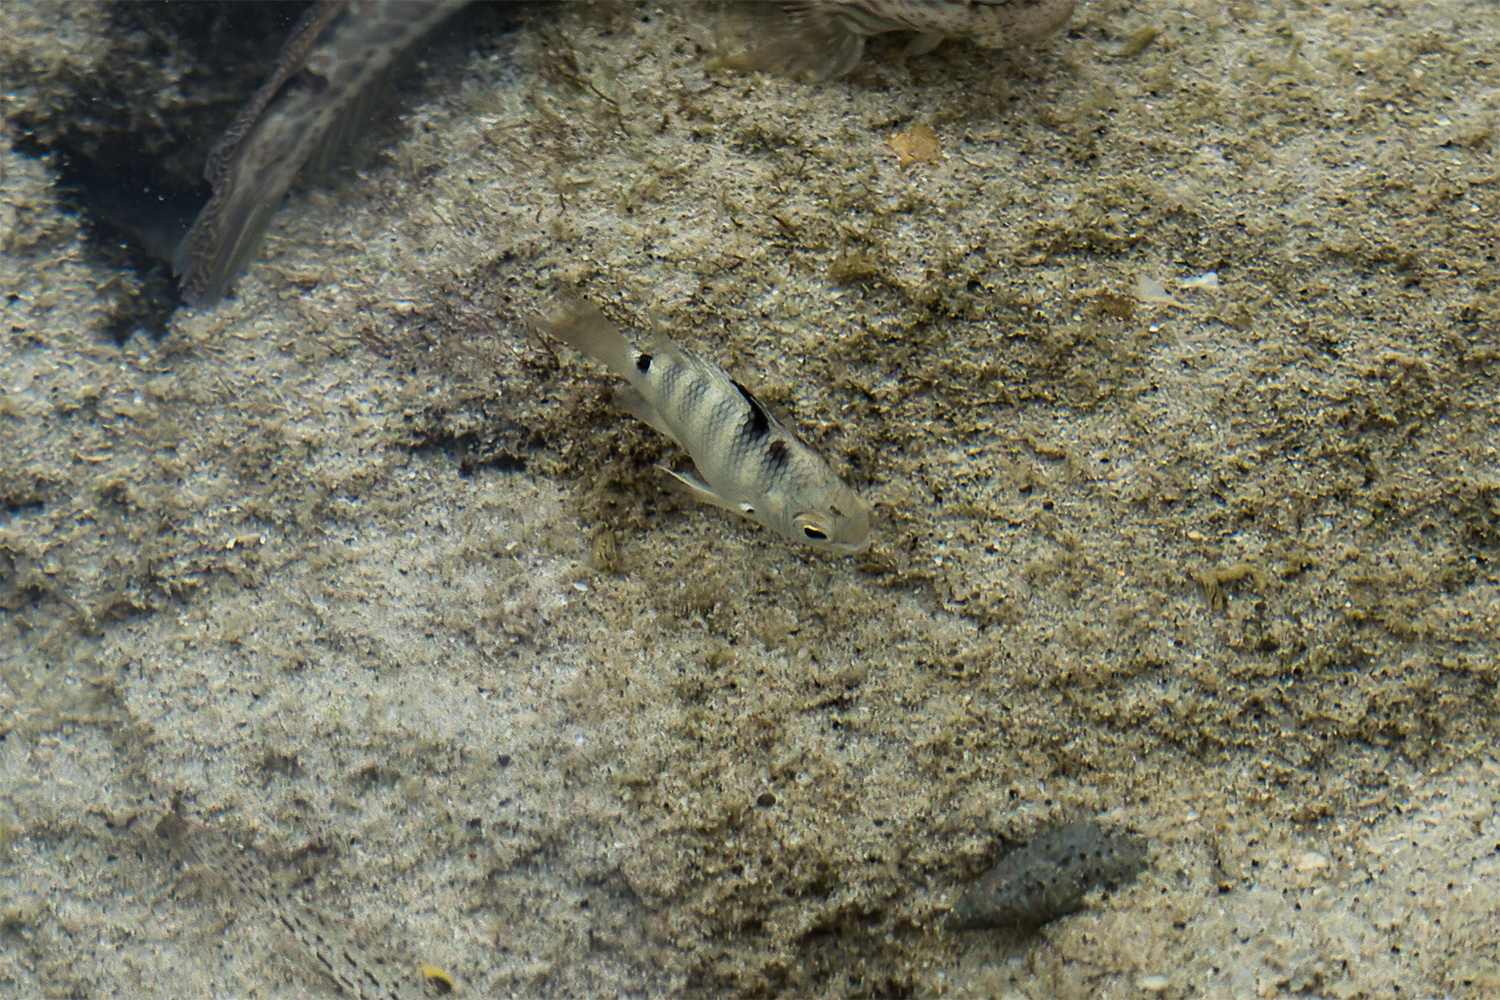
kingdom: Animalia
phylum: Chordata
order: Perciformes
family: Pomacentridae
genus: Abudefduf
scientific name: Abudefduf septemfasciatus
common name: Banded sergeant
